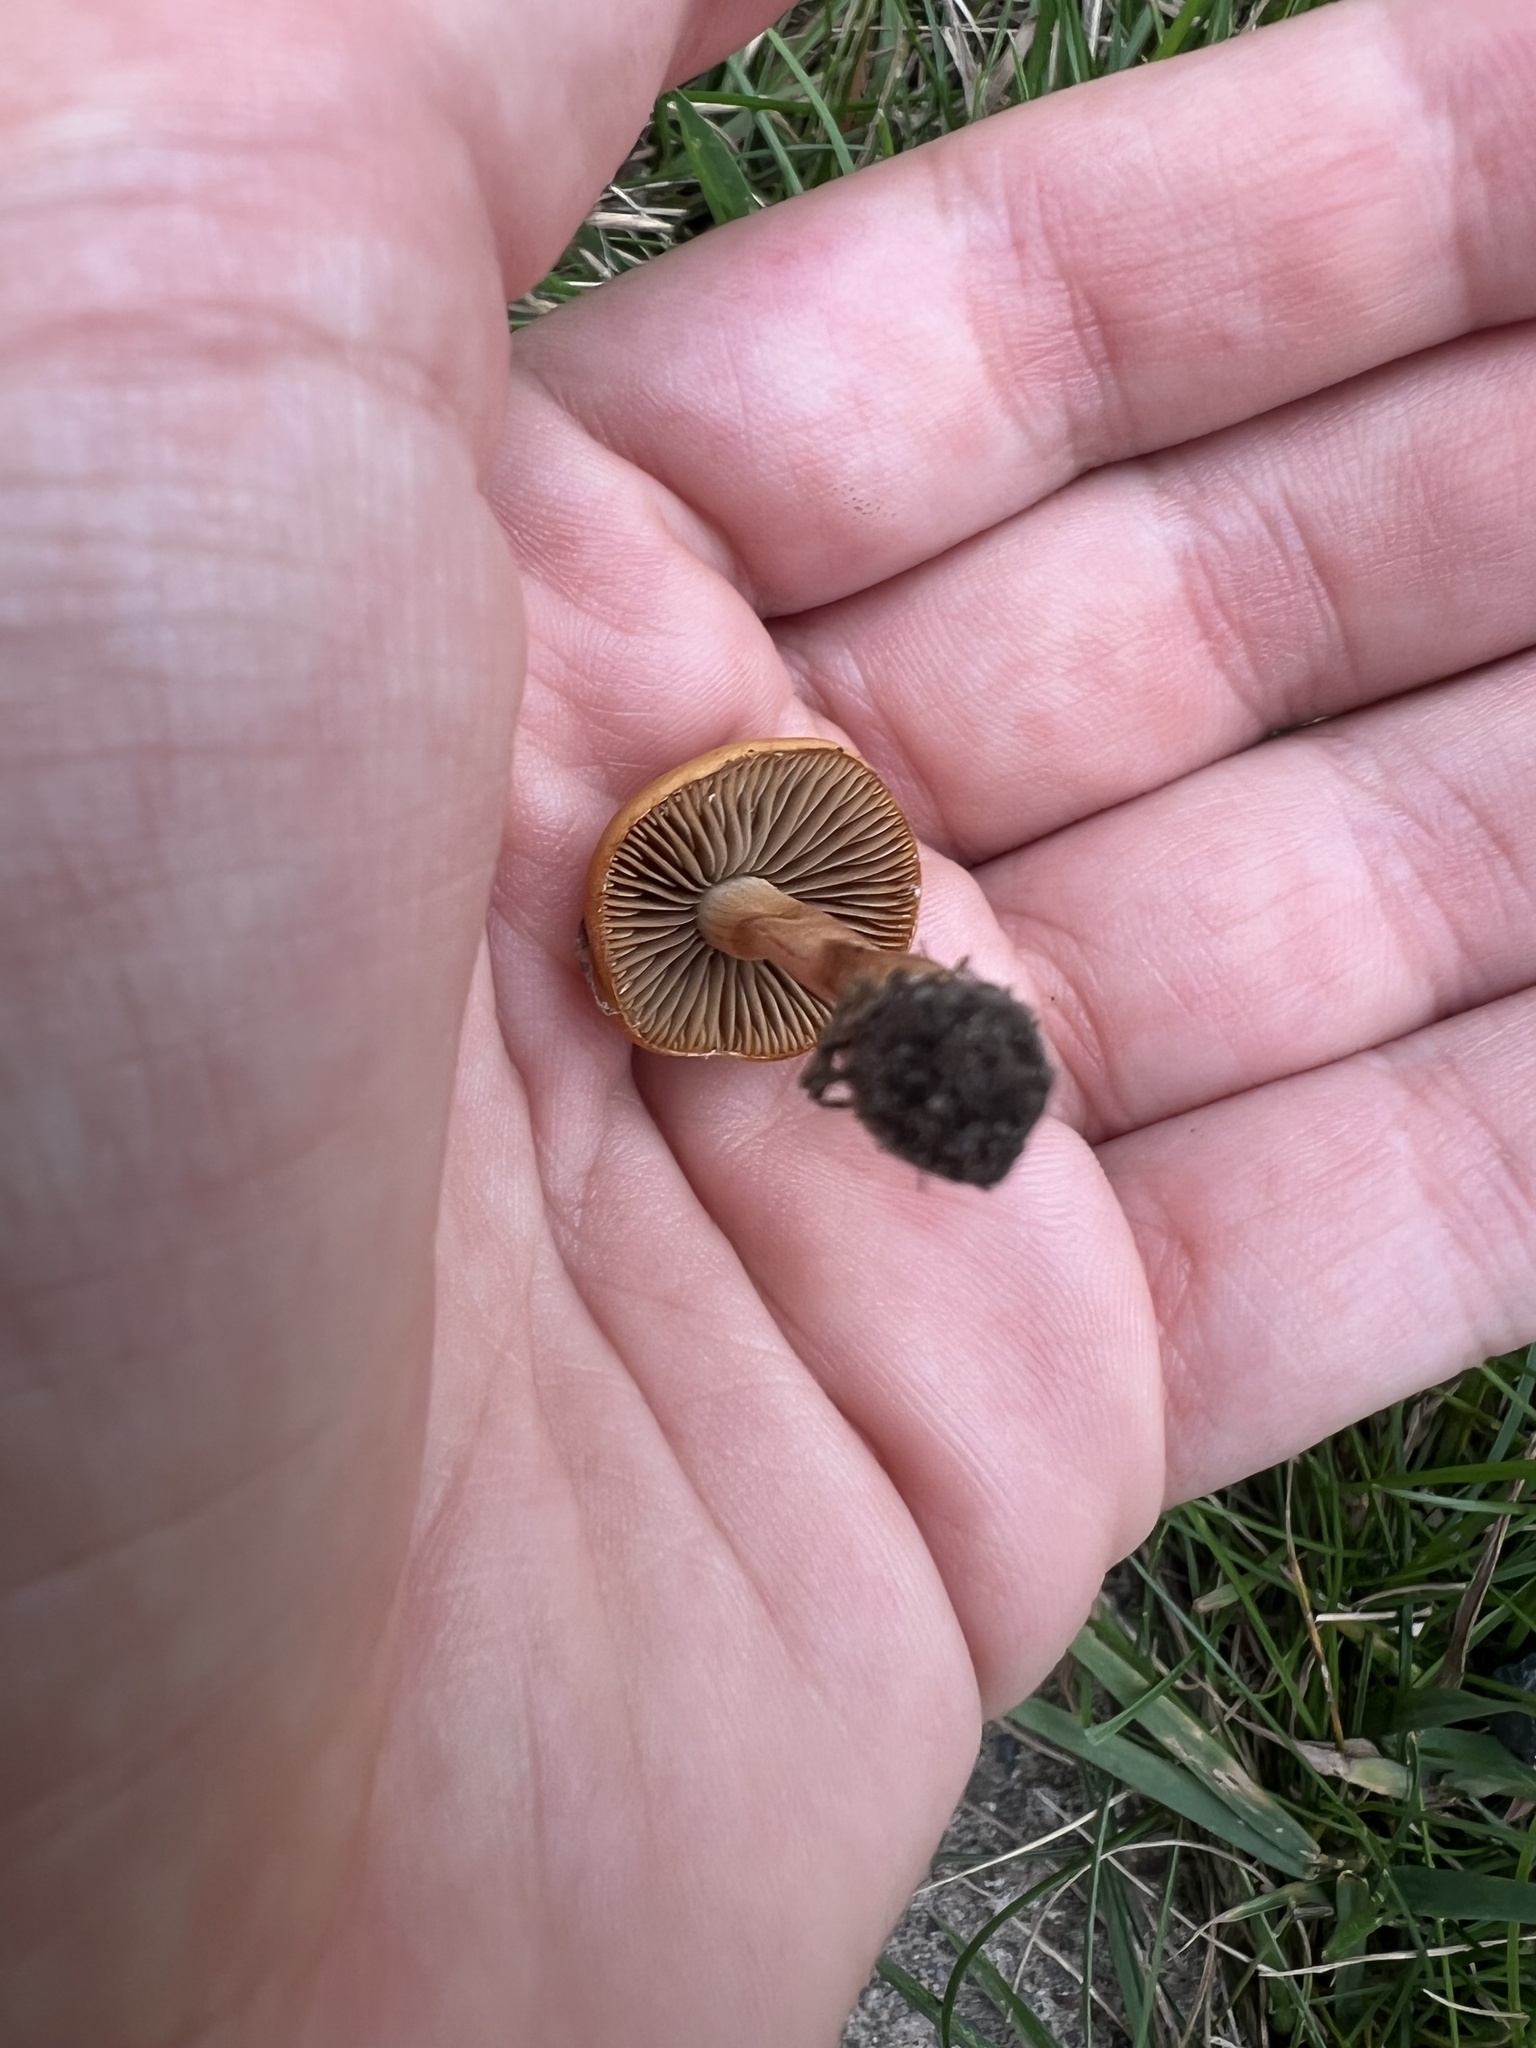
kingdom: Fungi
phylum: Basidiomycota
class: Agaricomycetes
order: Agaricales
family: Strophariaceae
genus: Agrocybe
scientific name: Agrocybe pediades
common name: Common fieldcap
